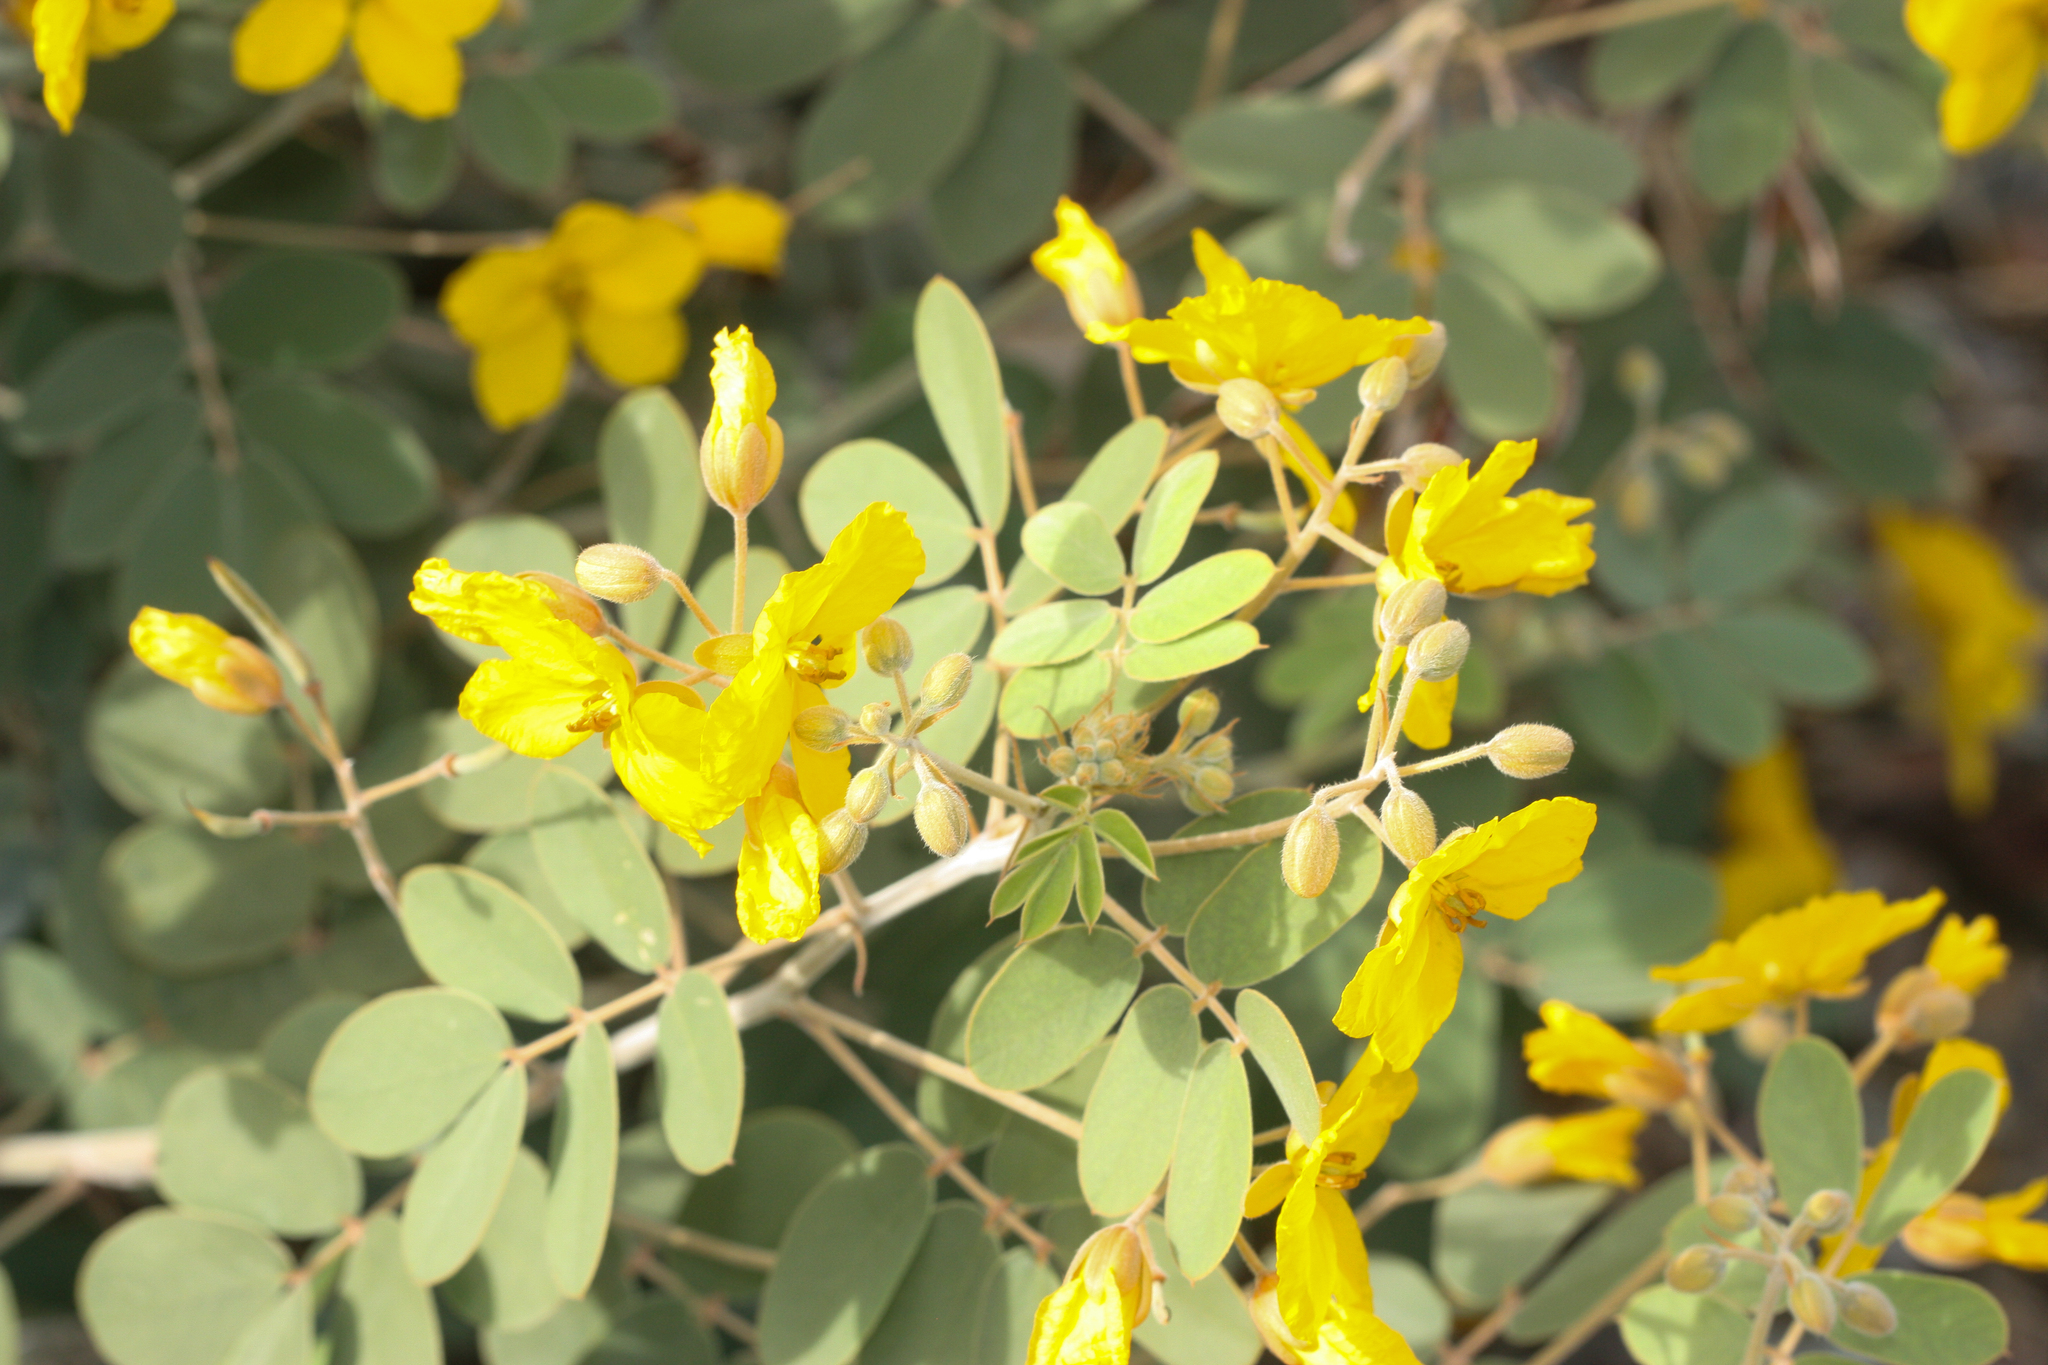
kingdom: Plantae
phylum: Tracheophyta
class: Magnoliopsida
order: Fabales
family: Fabaceae
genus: Senna
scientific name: Senna covesii
